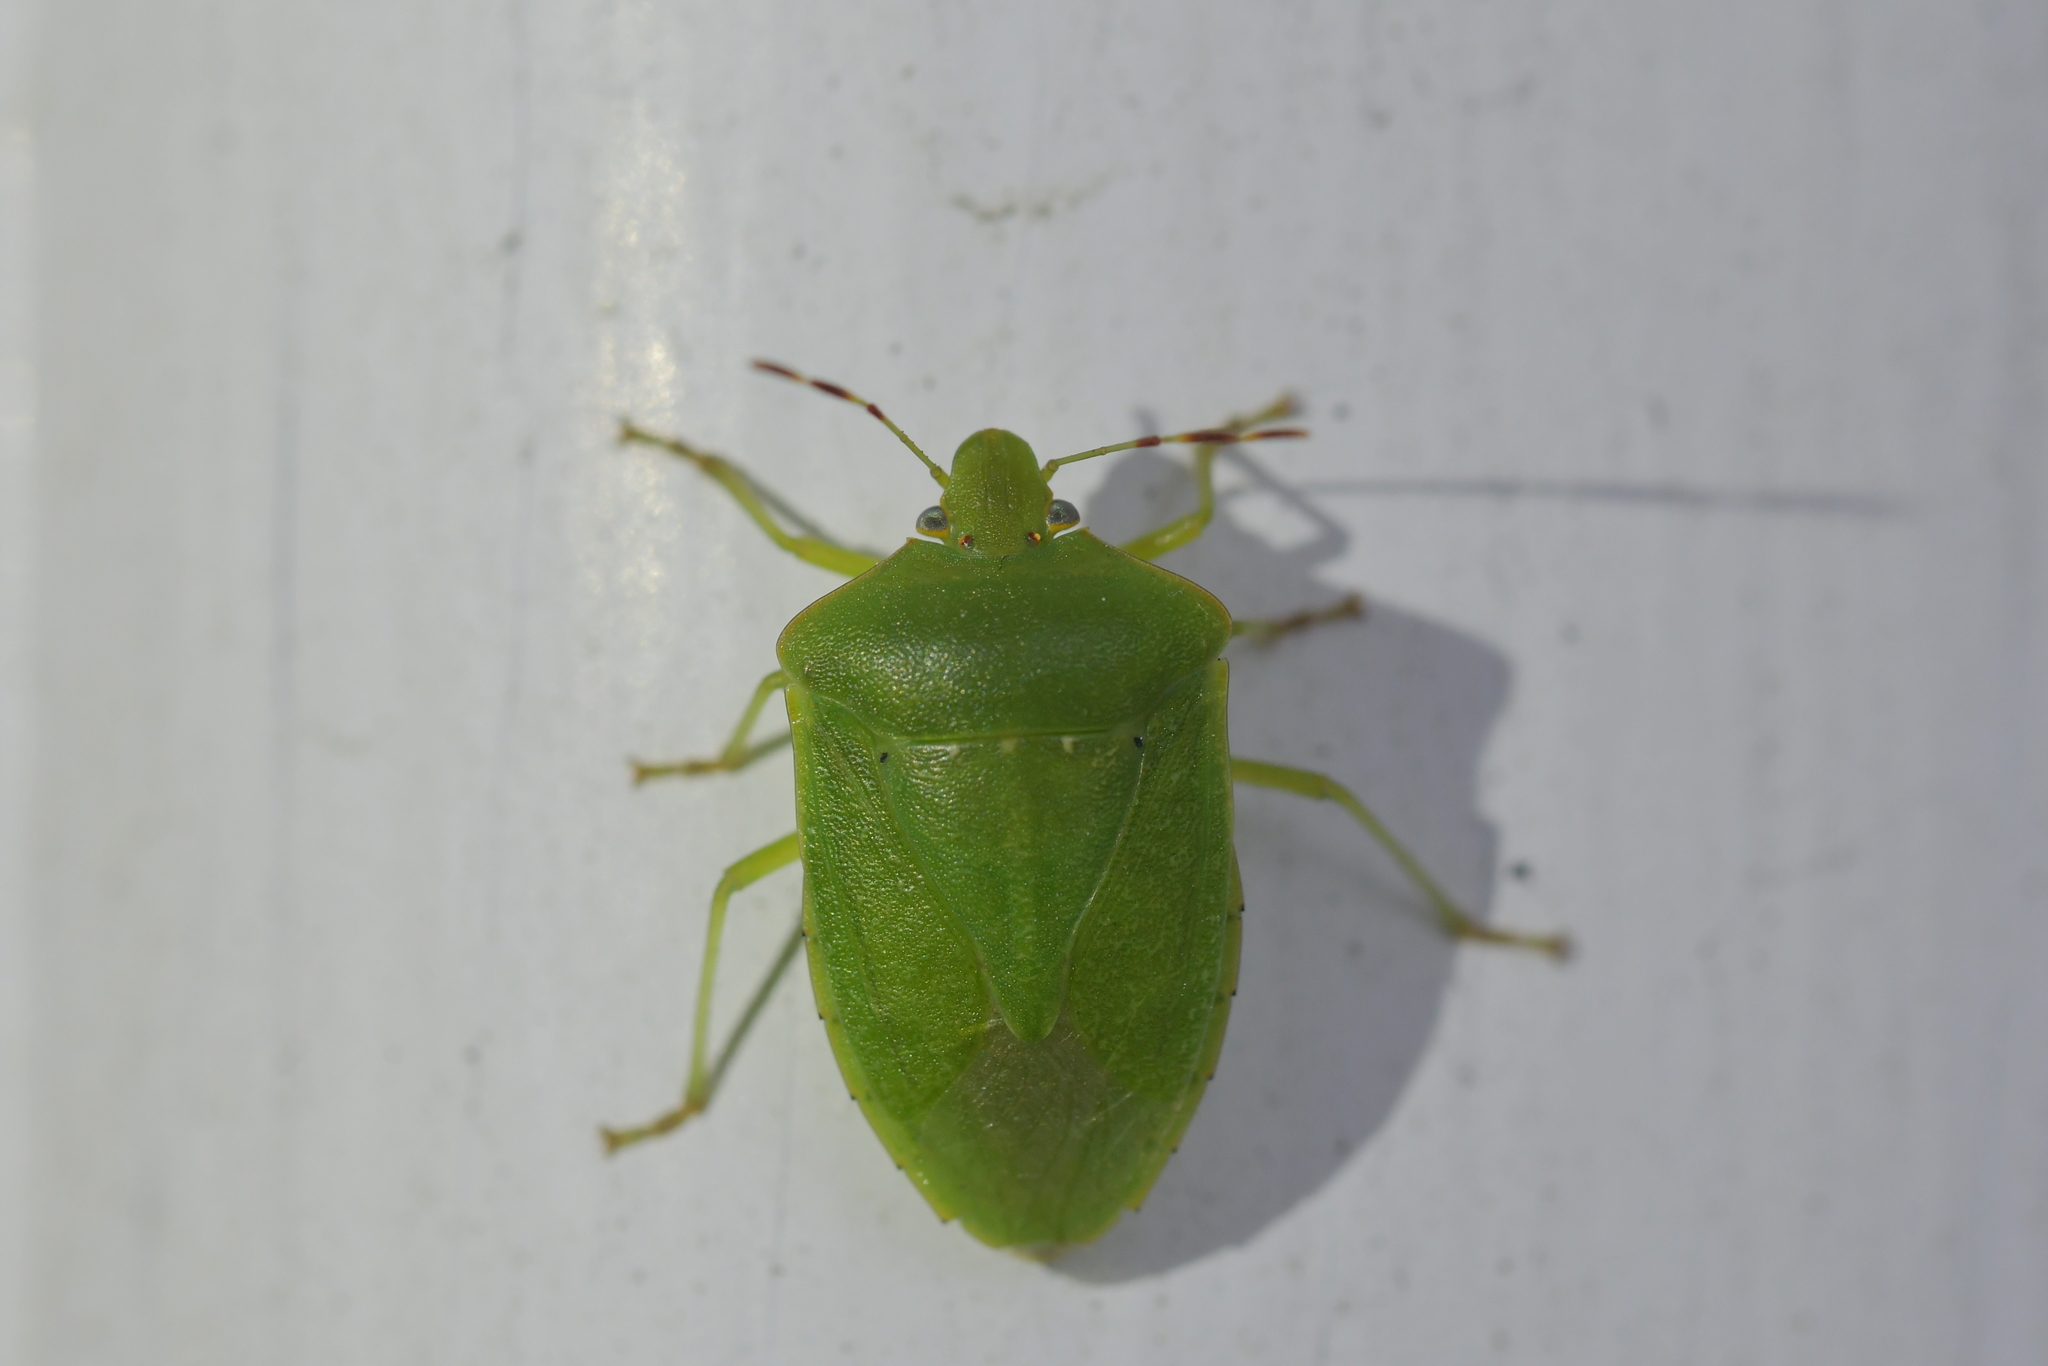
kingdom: Animalia
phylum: Arthropoda
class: Insecta
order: Hemiptera
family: Pentatomidae
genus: Nezara
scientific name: Nezara viridula
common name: Southern green stink bug
